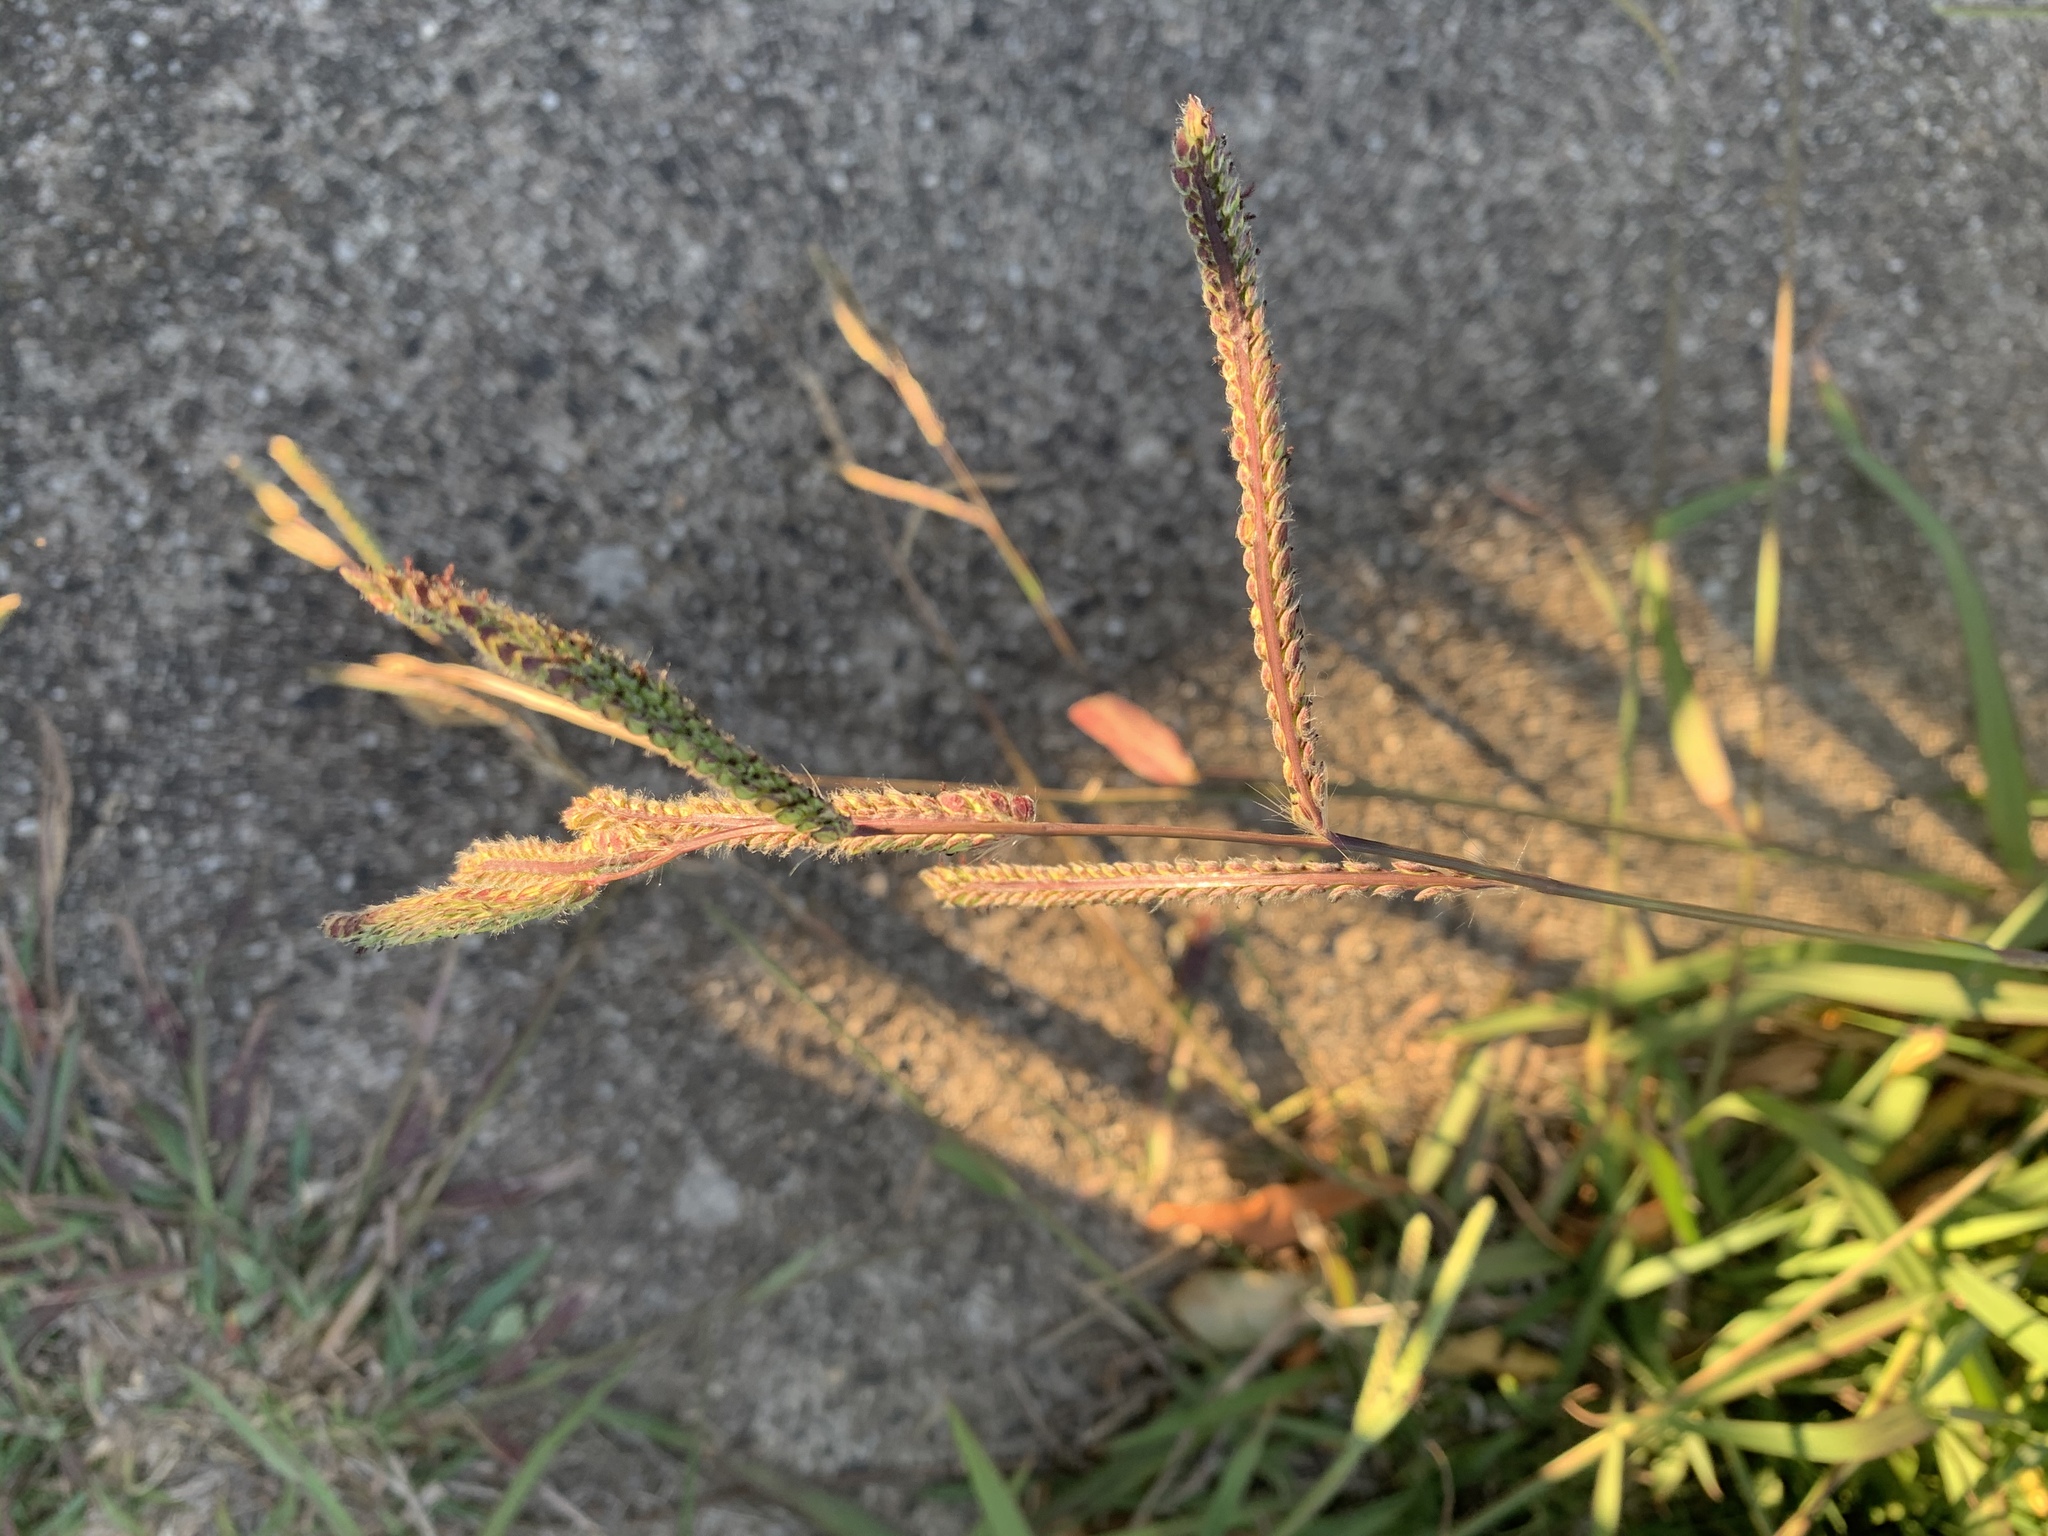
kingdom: Plantae
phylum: Tracheophyta
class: Liliopsida
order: Poales
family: Poaceae
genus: Paspalum
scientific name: Paspalum dilatatum
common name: Dallisgrass
